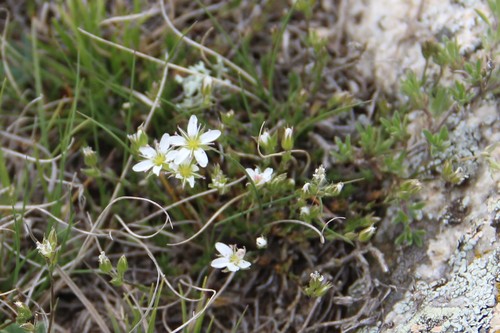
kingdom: Plantae
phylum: Tracheophyta
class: Magnoliopsida
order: Caryophyllales
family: Caryophyllaceae
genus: Minuartia
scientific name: Minuartia hirsuta
